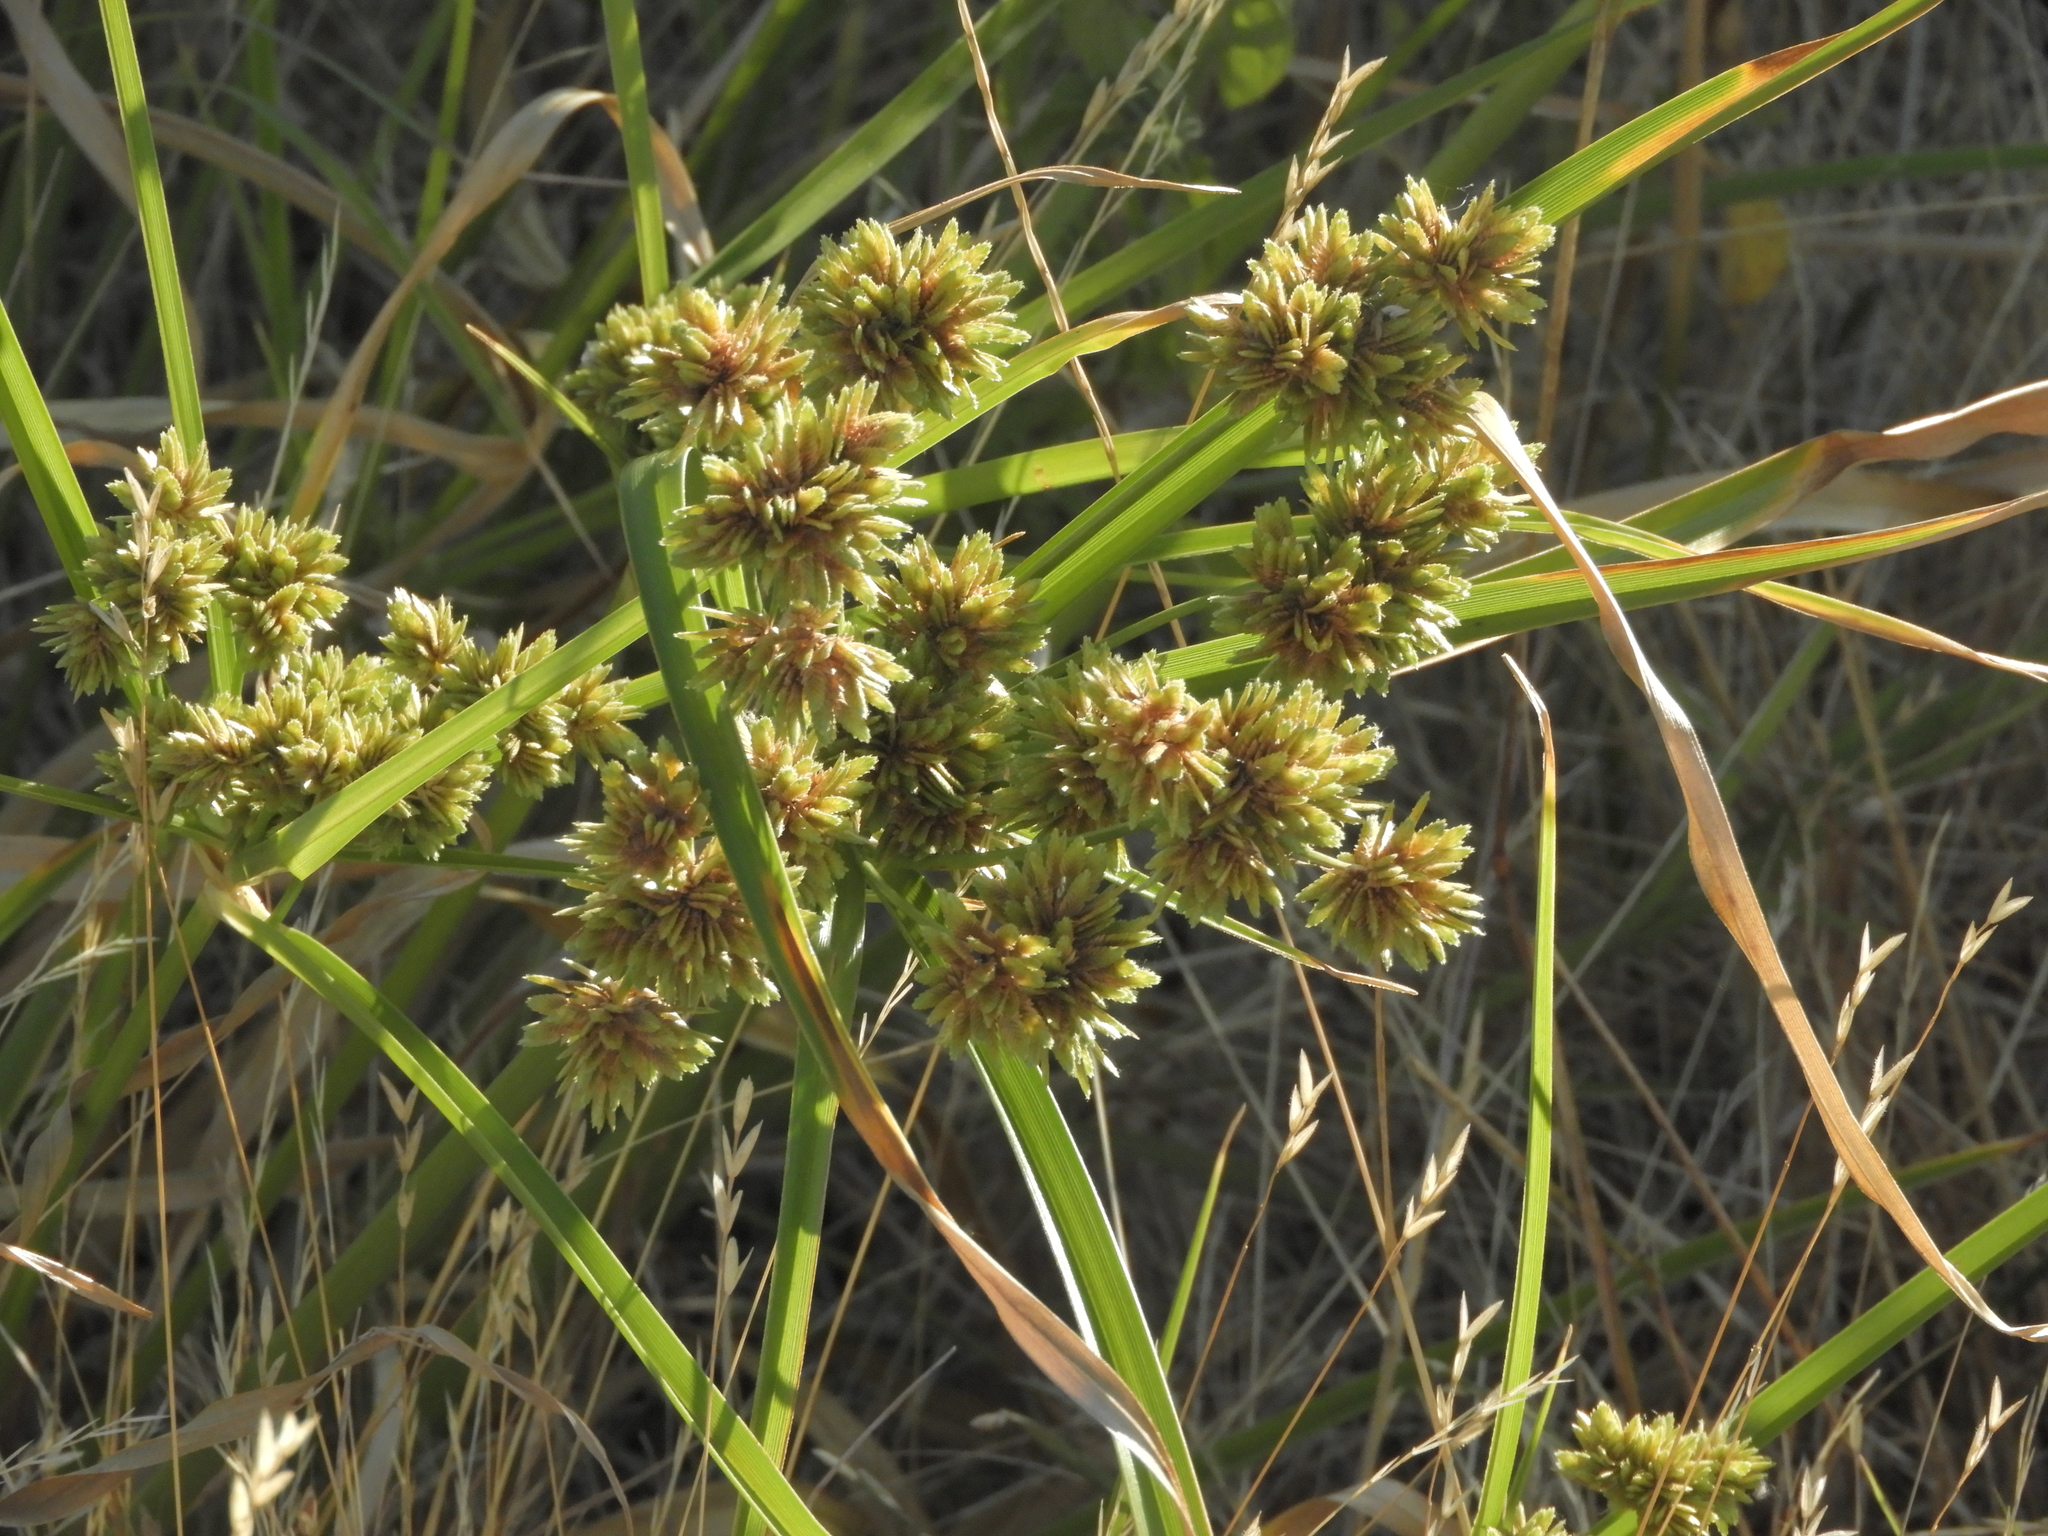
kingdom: Plantae
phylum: Tracheophyta
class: Liliopsida
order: Poales
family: Cyperaceae
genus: Cyperus
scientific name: Cyperus eragrostis
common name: Tall flatsedge
